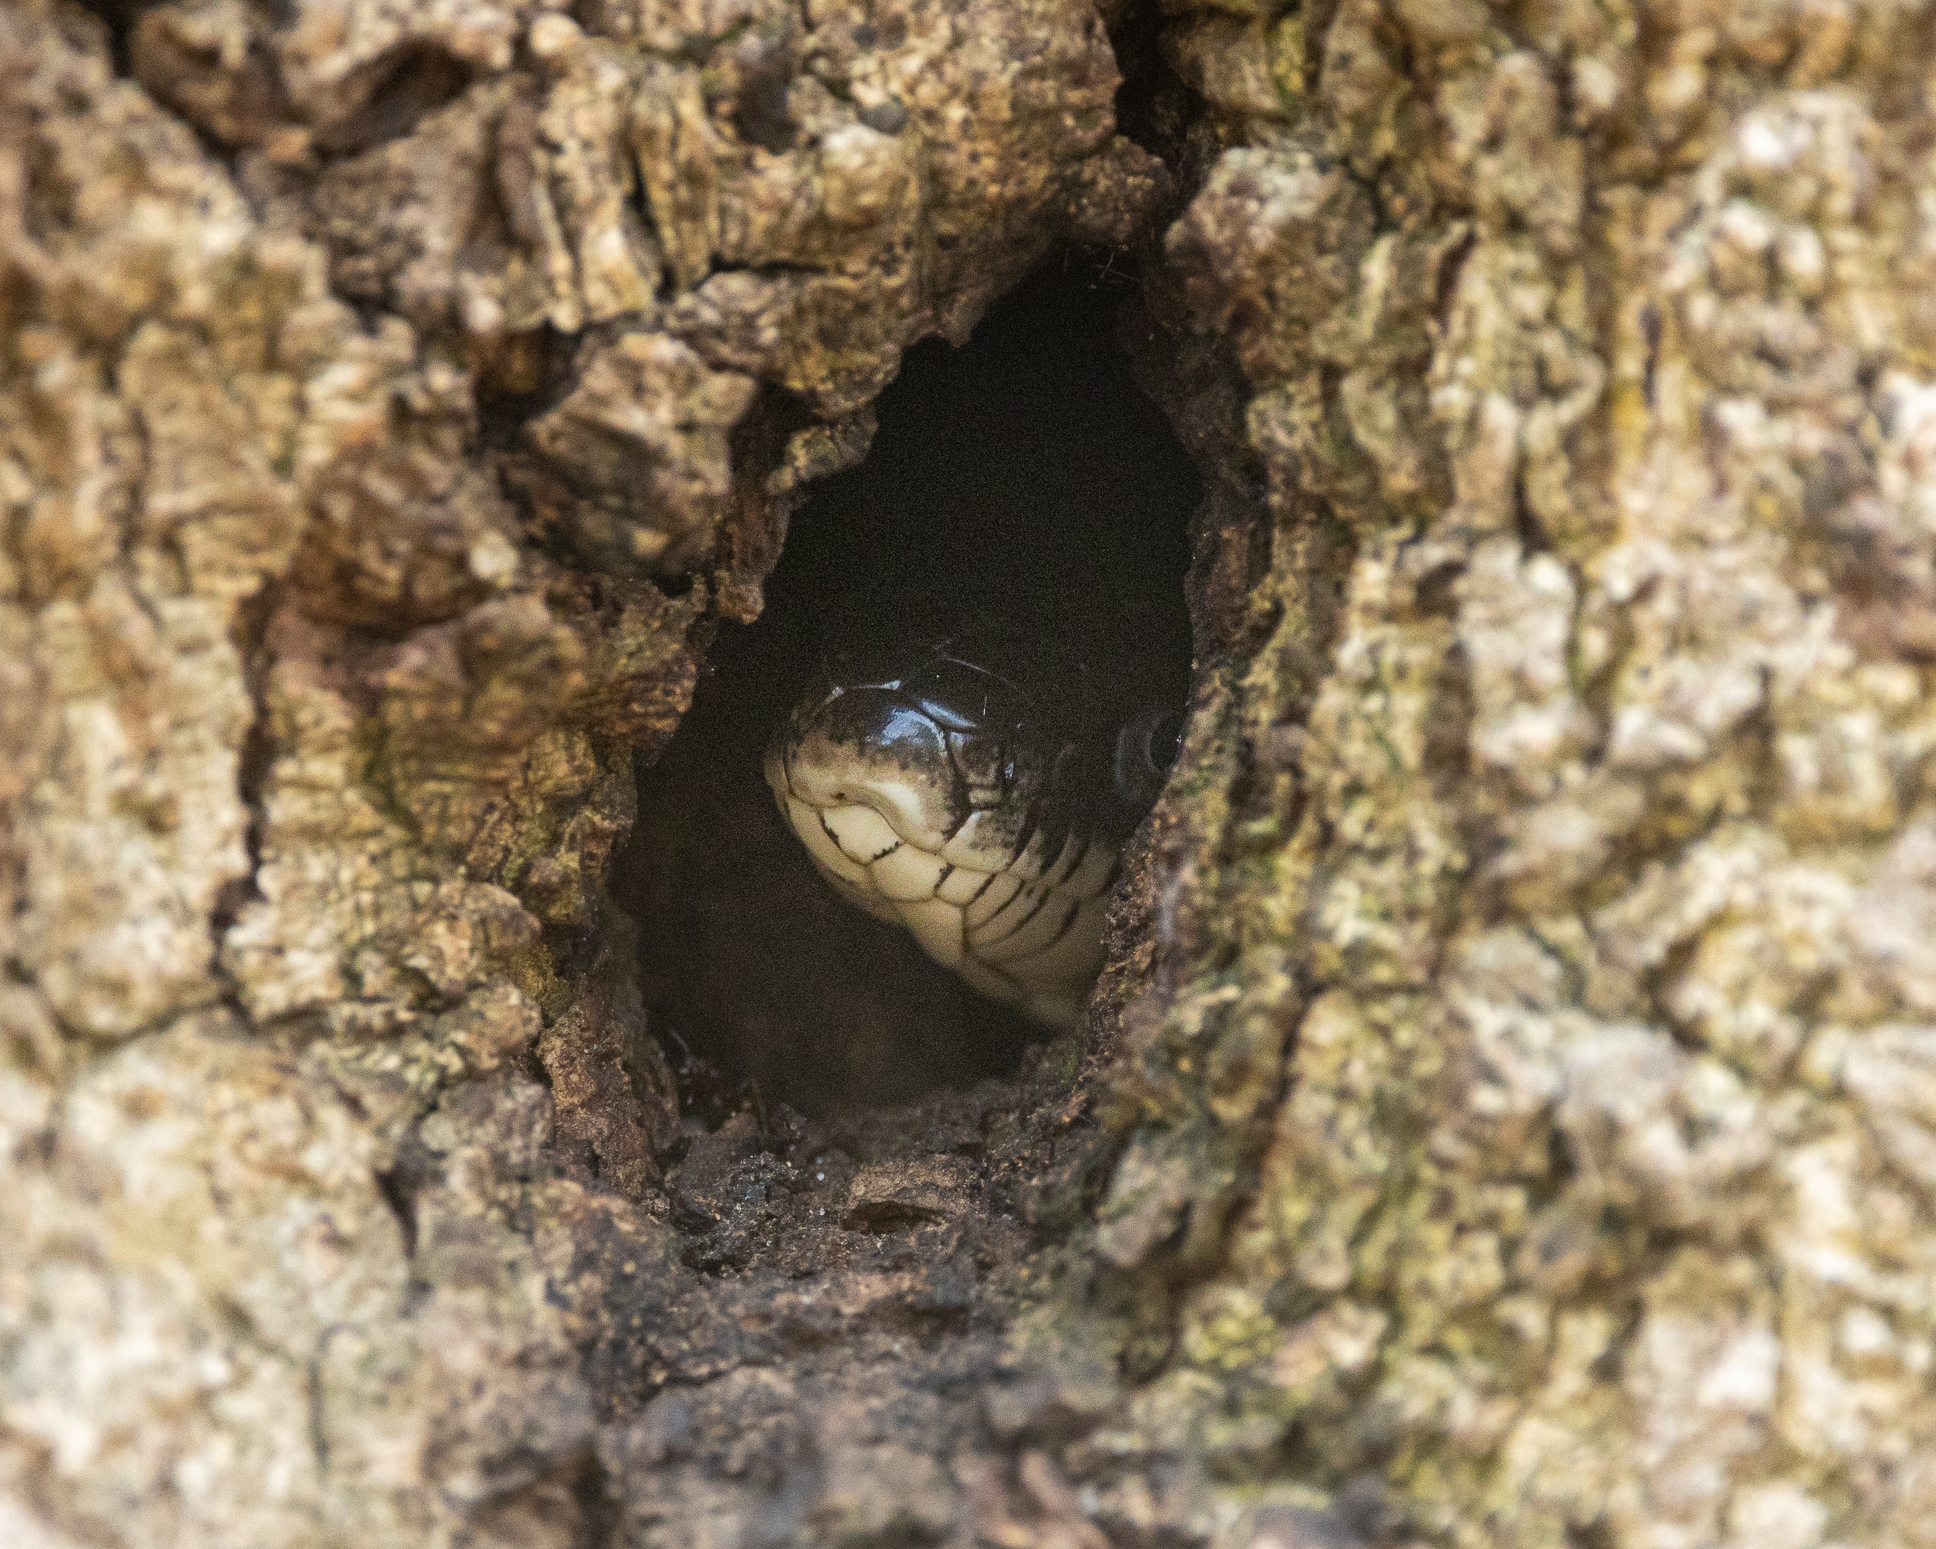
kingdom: Animalia
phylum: Chordata
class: Squamata
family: Colubridae
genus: Pantherophis
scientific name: Pantherophis alleghaniensis
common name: Eastern rat snake
